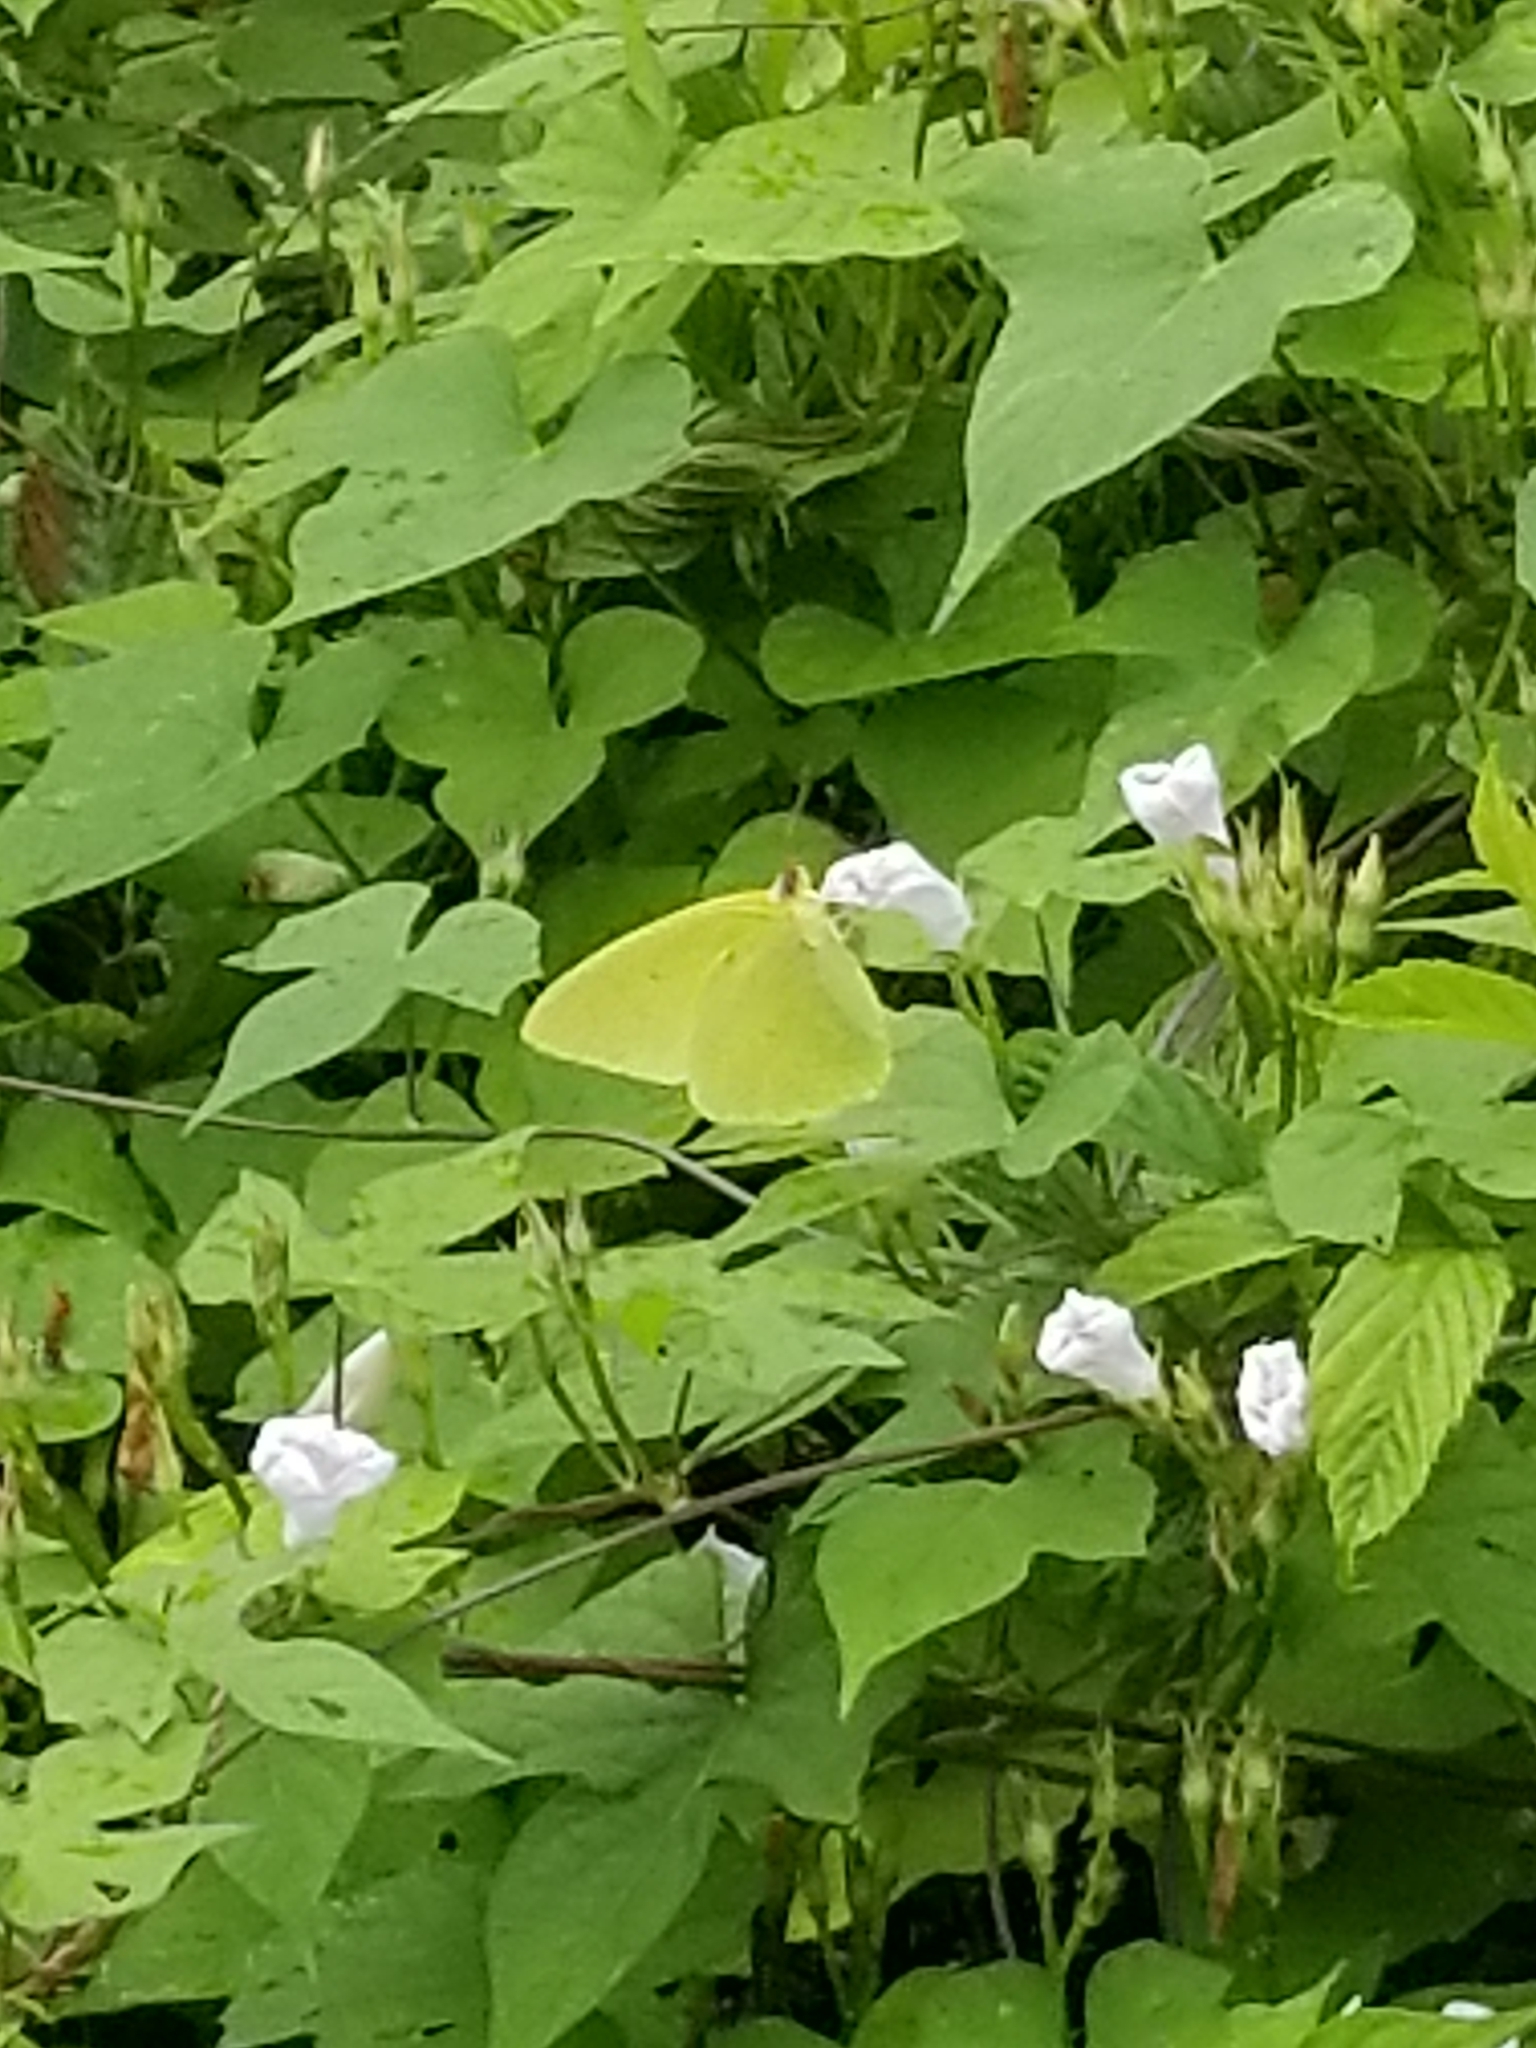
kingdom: Animalia
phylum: Arthropoda
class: Insecta
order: Lepidoptera
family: Pieridae
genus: Phoebis
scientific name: Phoebis sennae
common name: Cloudless sulphur
